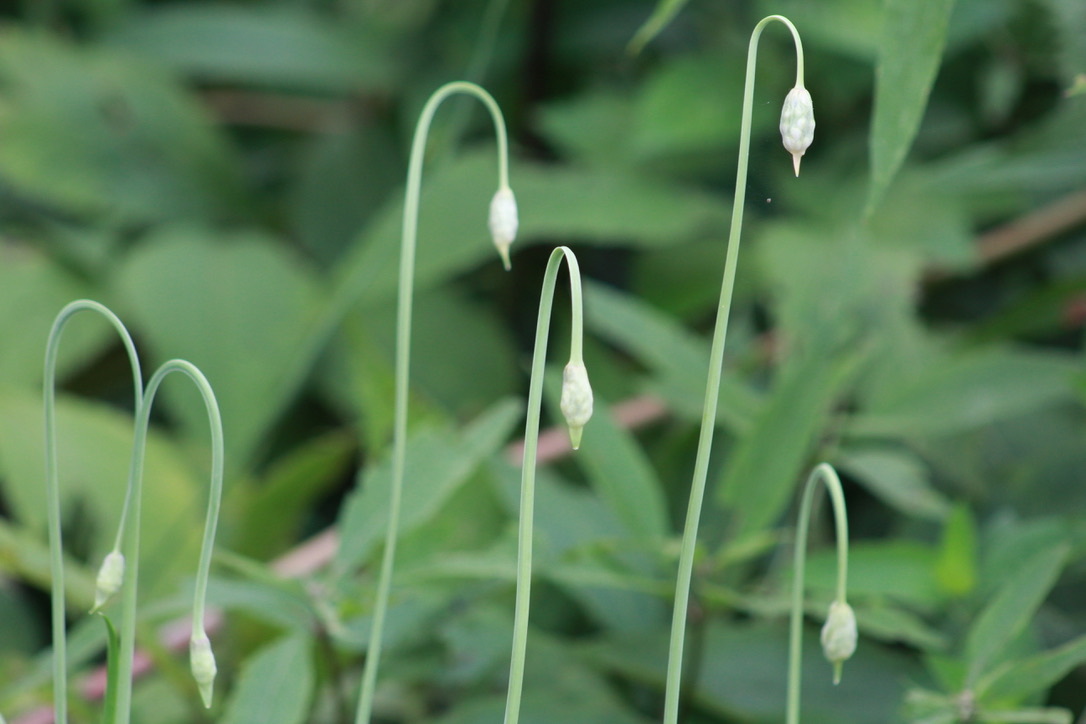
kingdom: Plantae
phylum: Tracheophyta
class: Liliopsida
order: Asparagales
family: Amaryllidaceae
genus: Allium
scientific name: Allium cernuum
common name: Nodding onion
